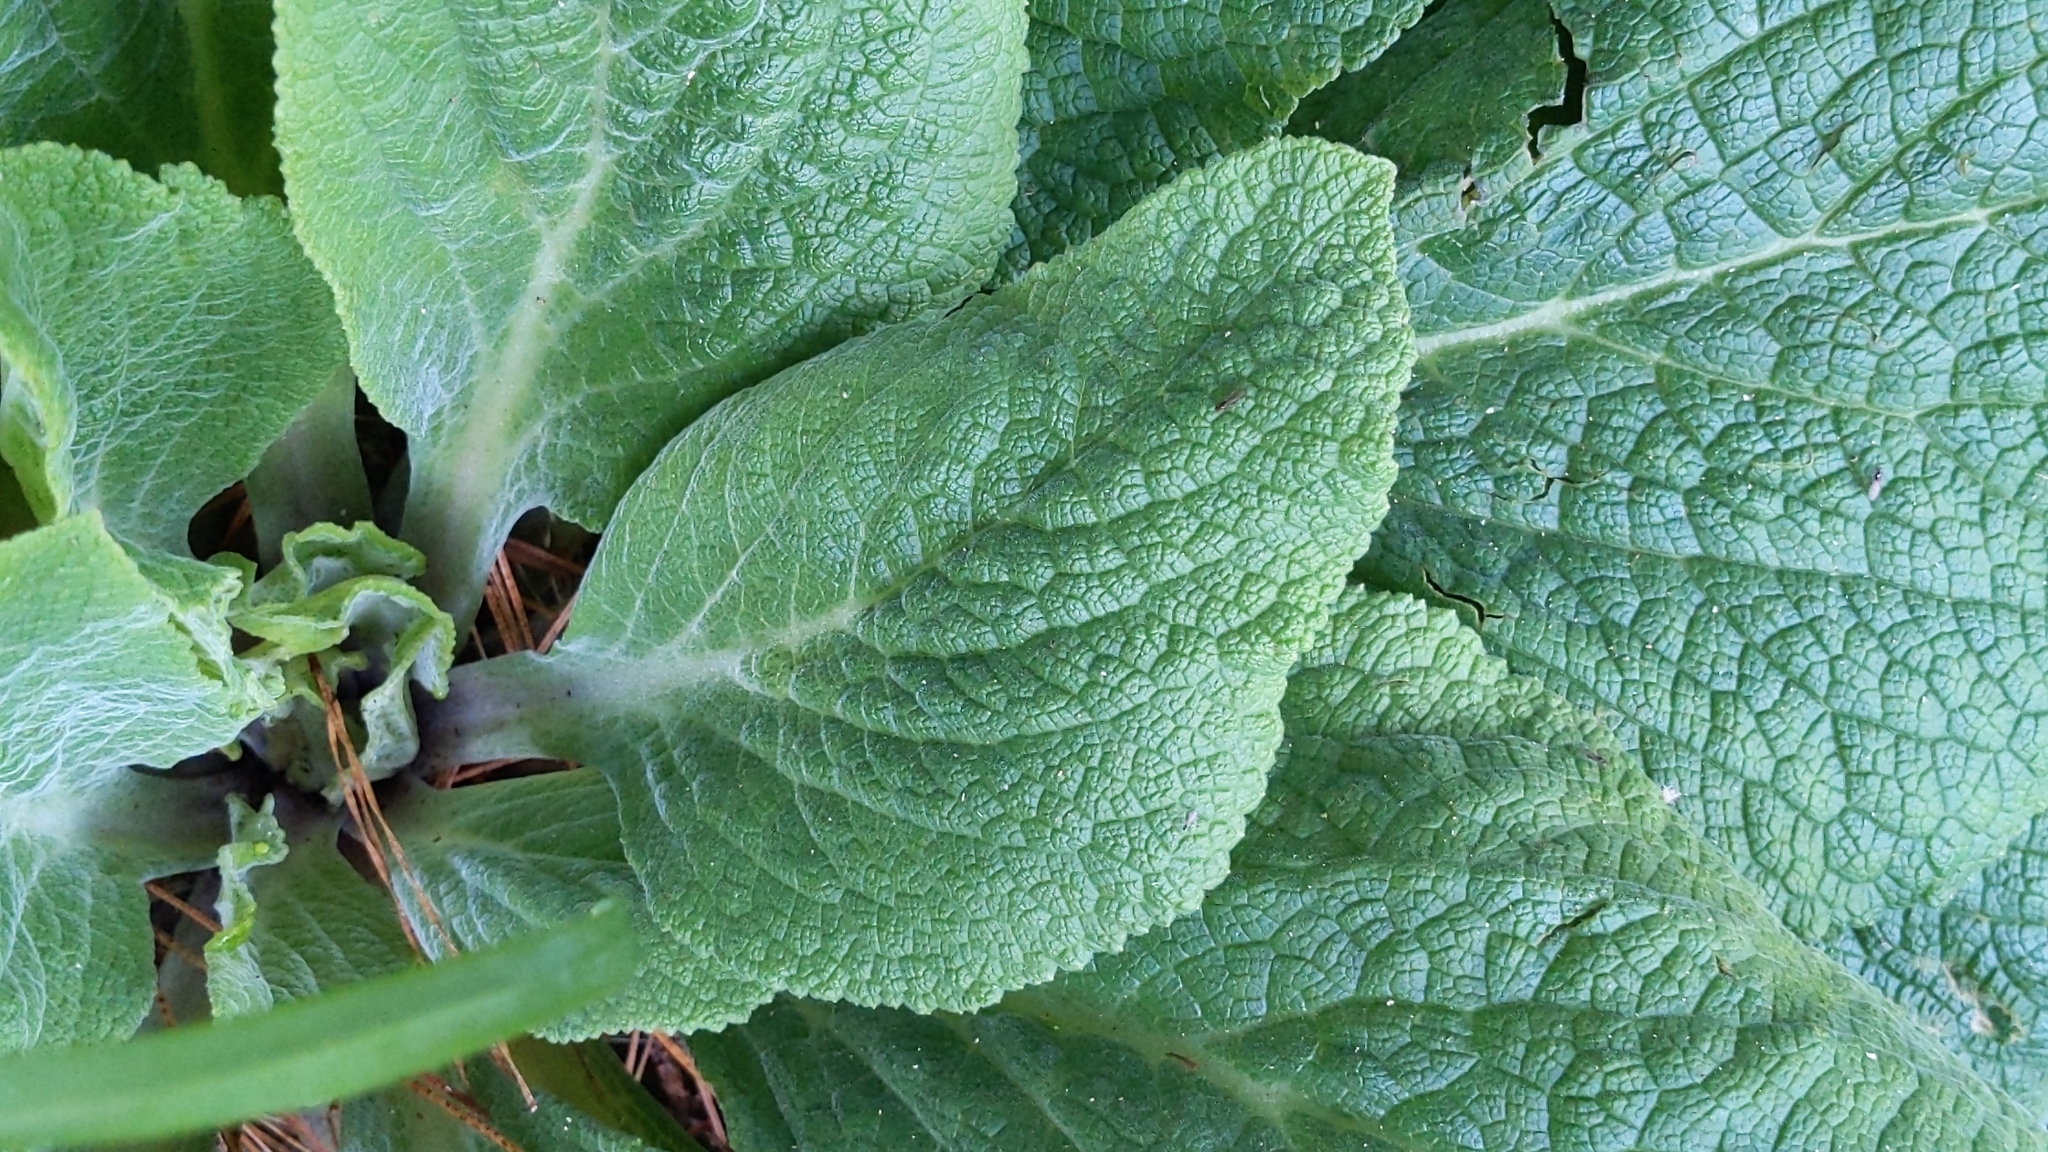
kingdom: Plantae
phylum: Tracheophyta
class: Magnoliopsida
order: Lamiales
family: Plantaginaceae
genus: Digitalis
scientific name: Digitalis purpurea
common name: Foxglove
